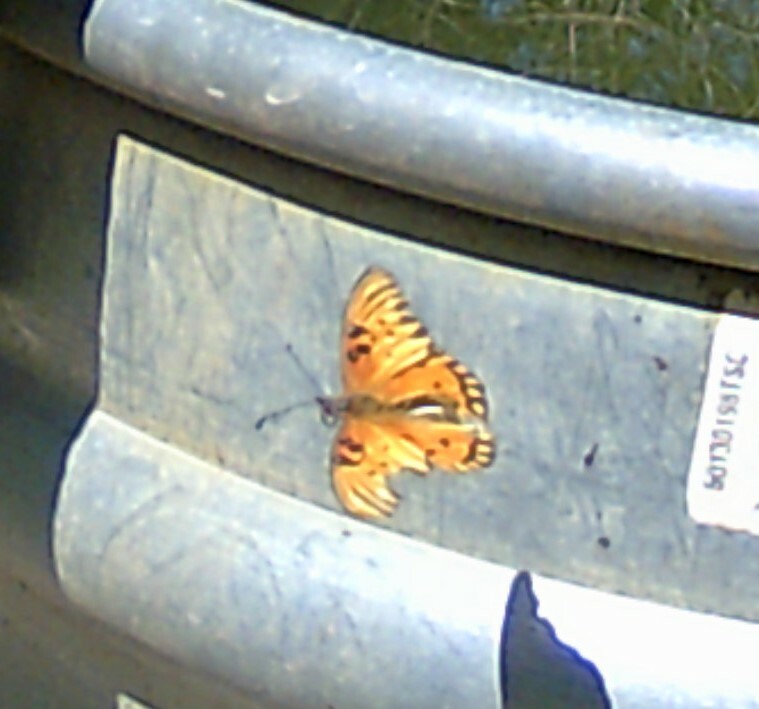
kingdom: Animalia
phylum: Arthropoda
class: Insecta
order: Lepidoptera
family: Nymphalidae
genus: Dione
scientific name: Dione vanillae
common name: Gulf fritillary
